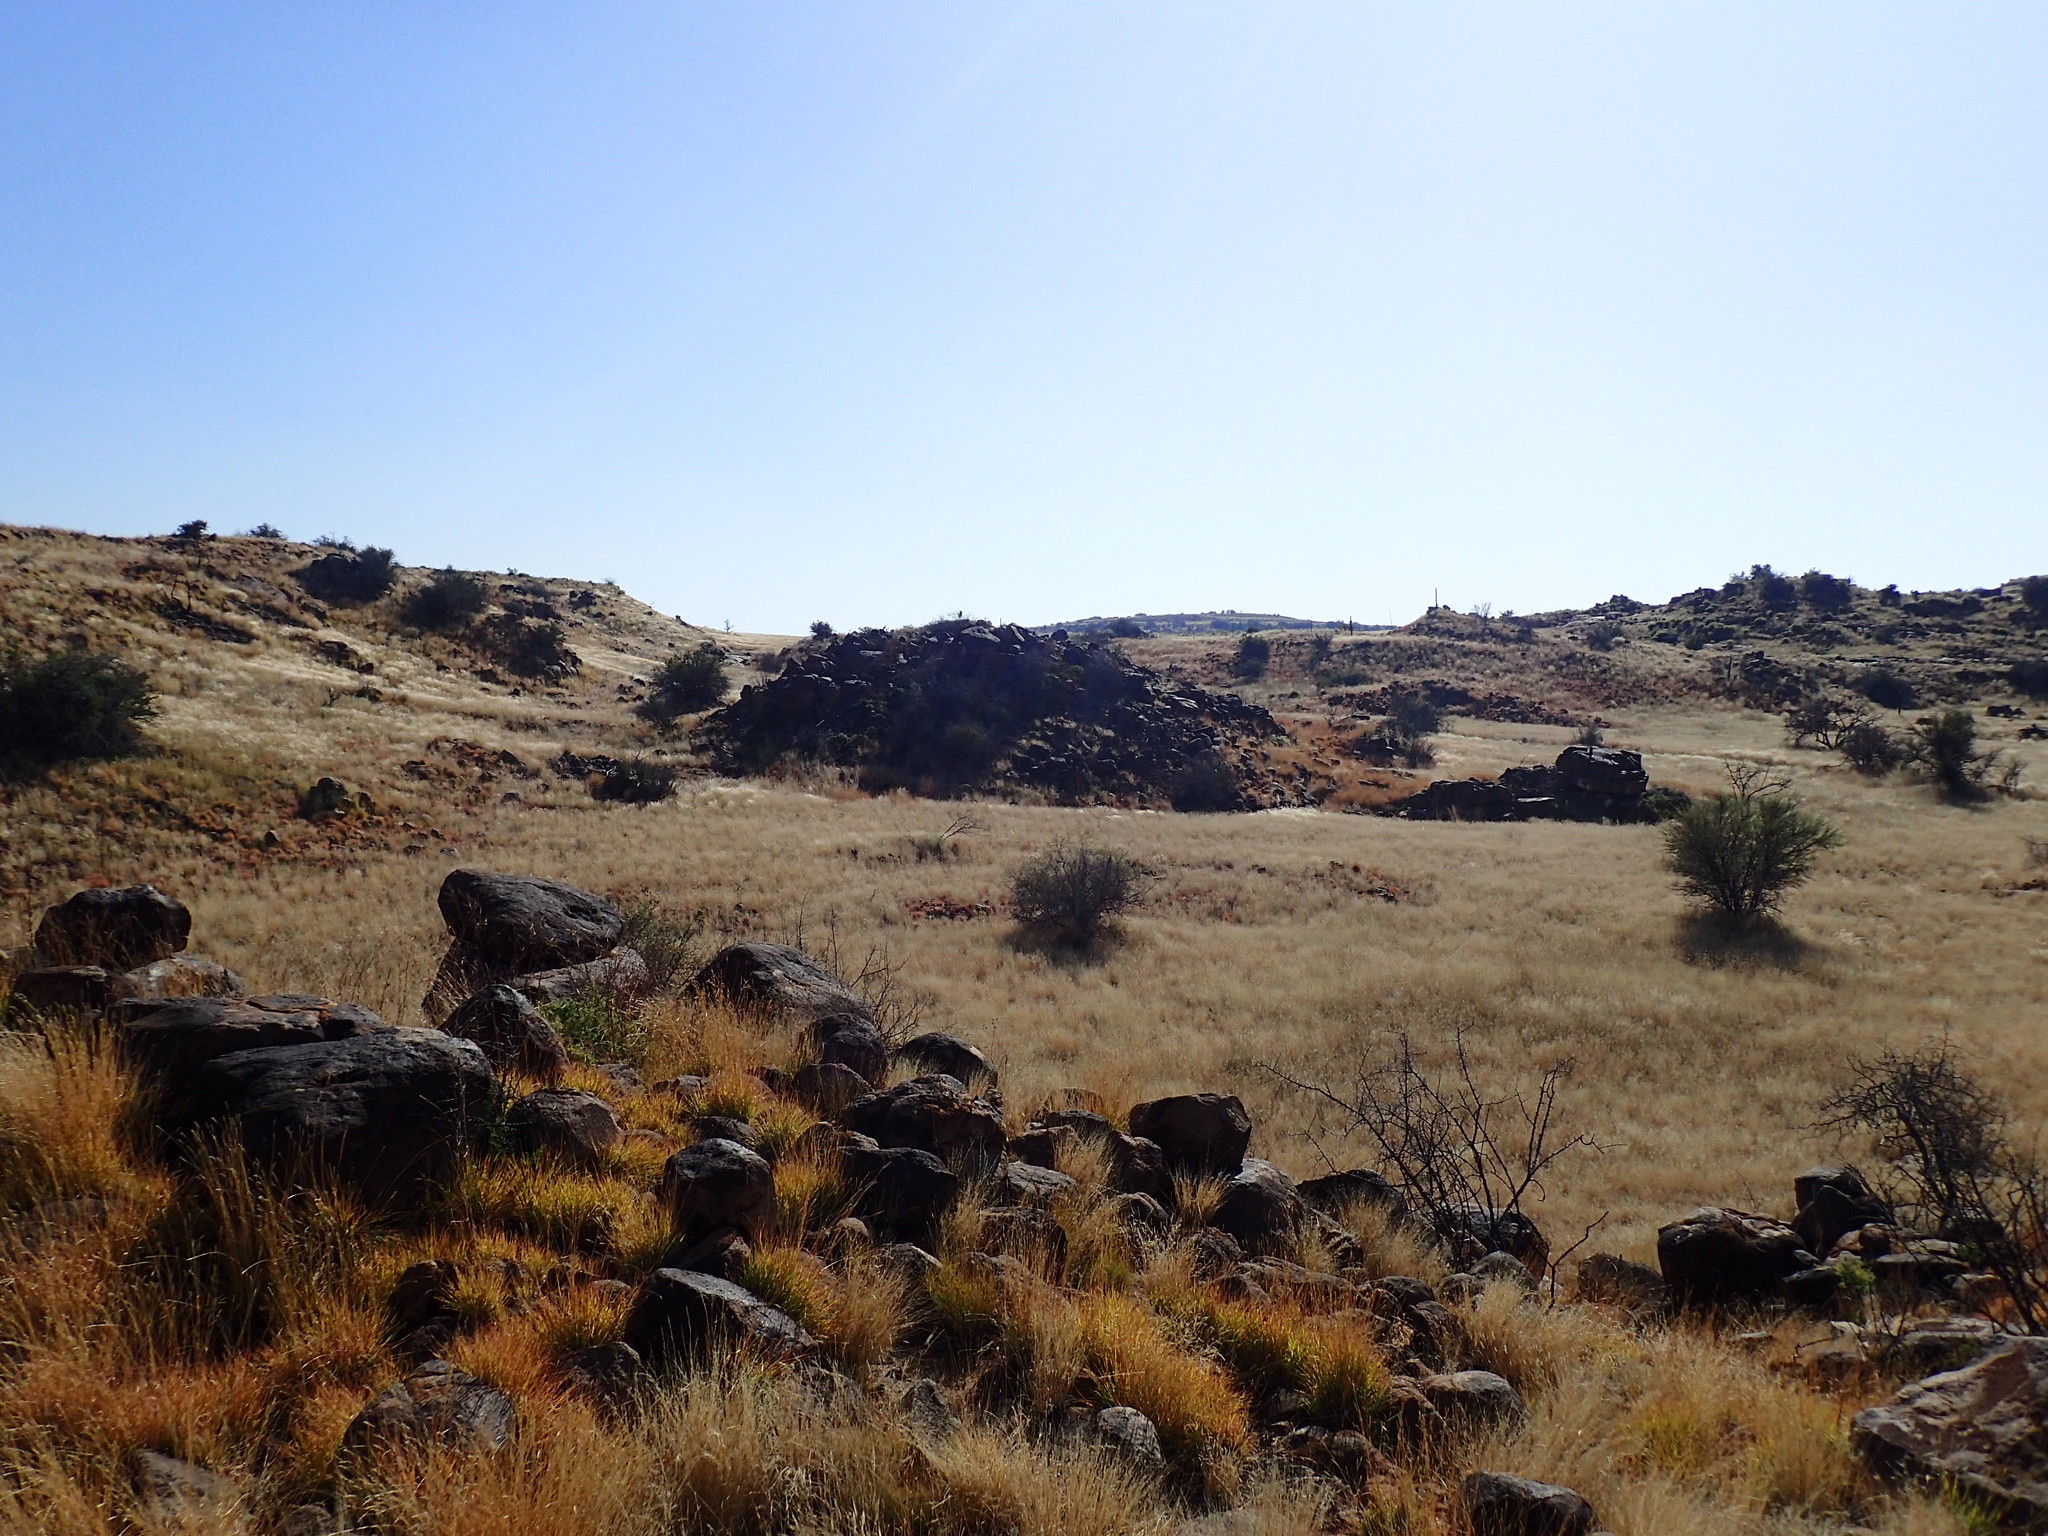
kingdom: Plantae
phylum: Tracheophyta
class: Liliopsida
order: Poales
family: Poaceae
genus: Themeda
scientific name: Themeda triandra
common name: Kangaroo grass
